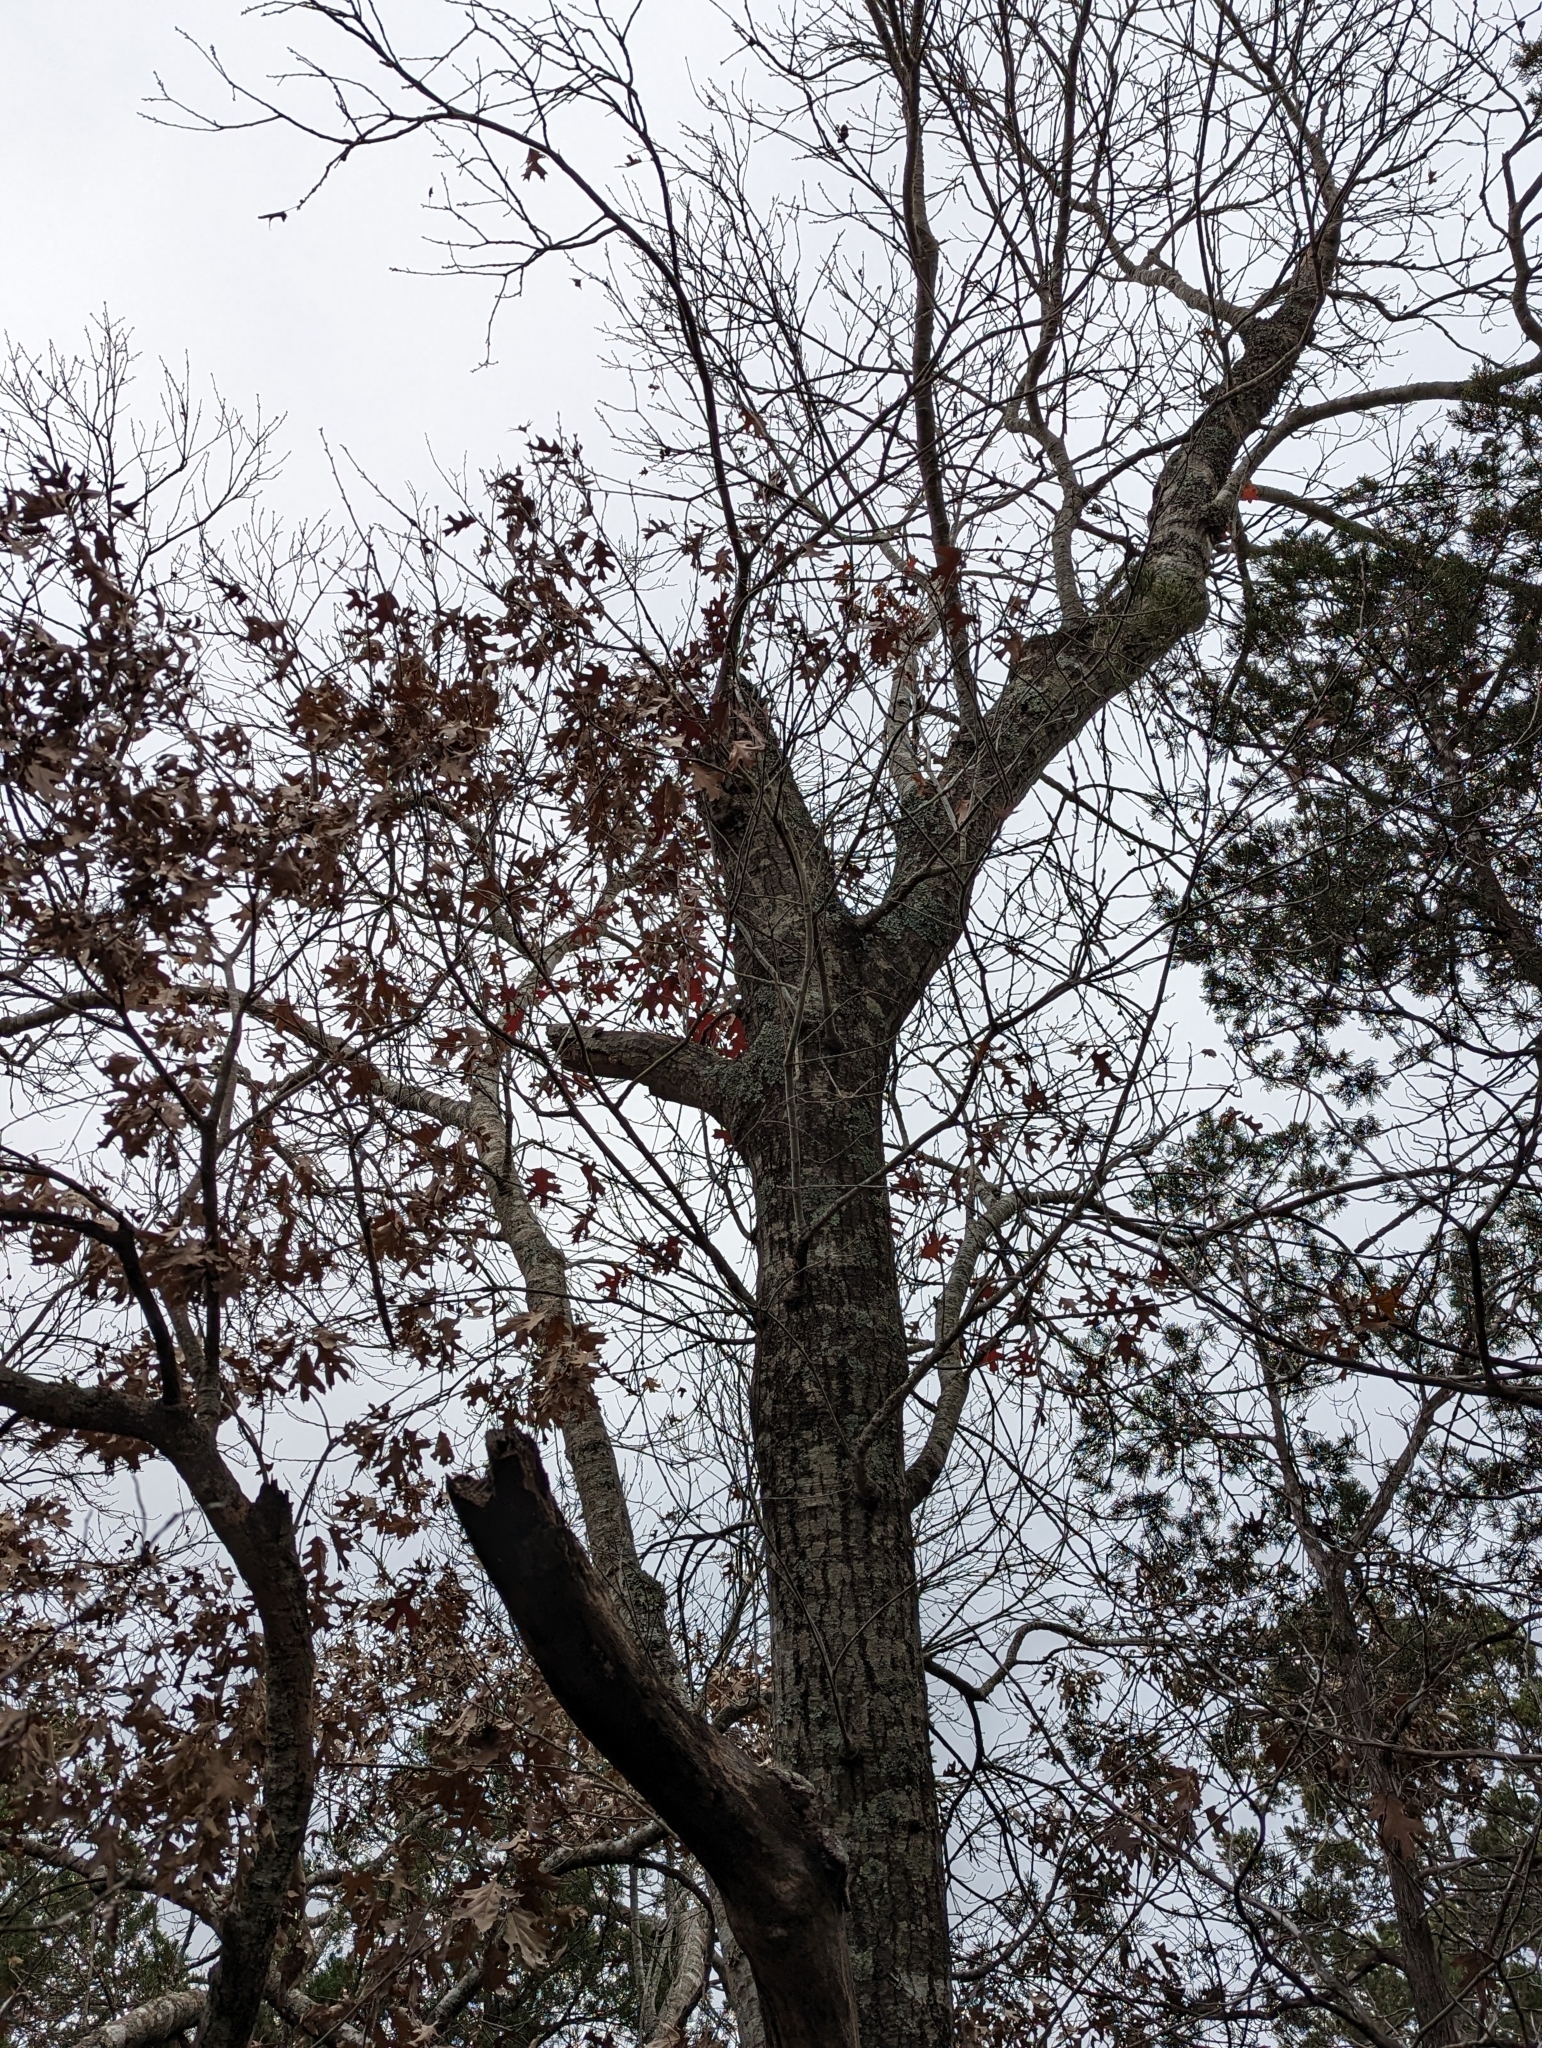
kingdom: Plantae
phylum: Tracheophyta
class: Magnoliopsida
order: Fagales
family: Fagaceae
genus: Quercus
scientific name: Quercus buckleyi
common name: Buckley oak
